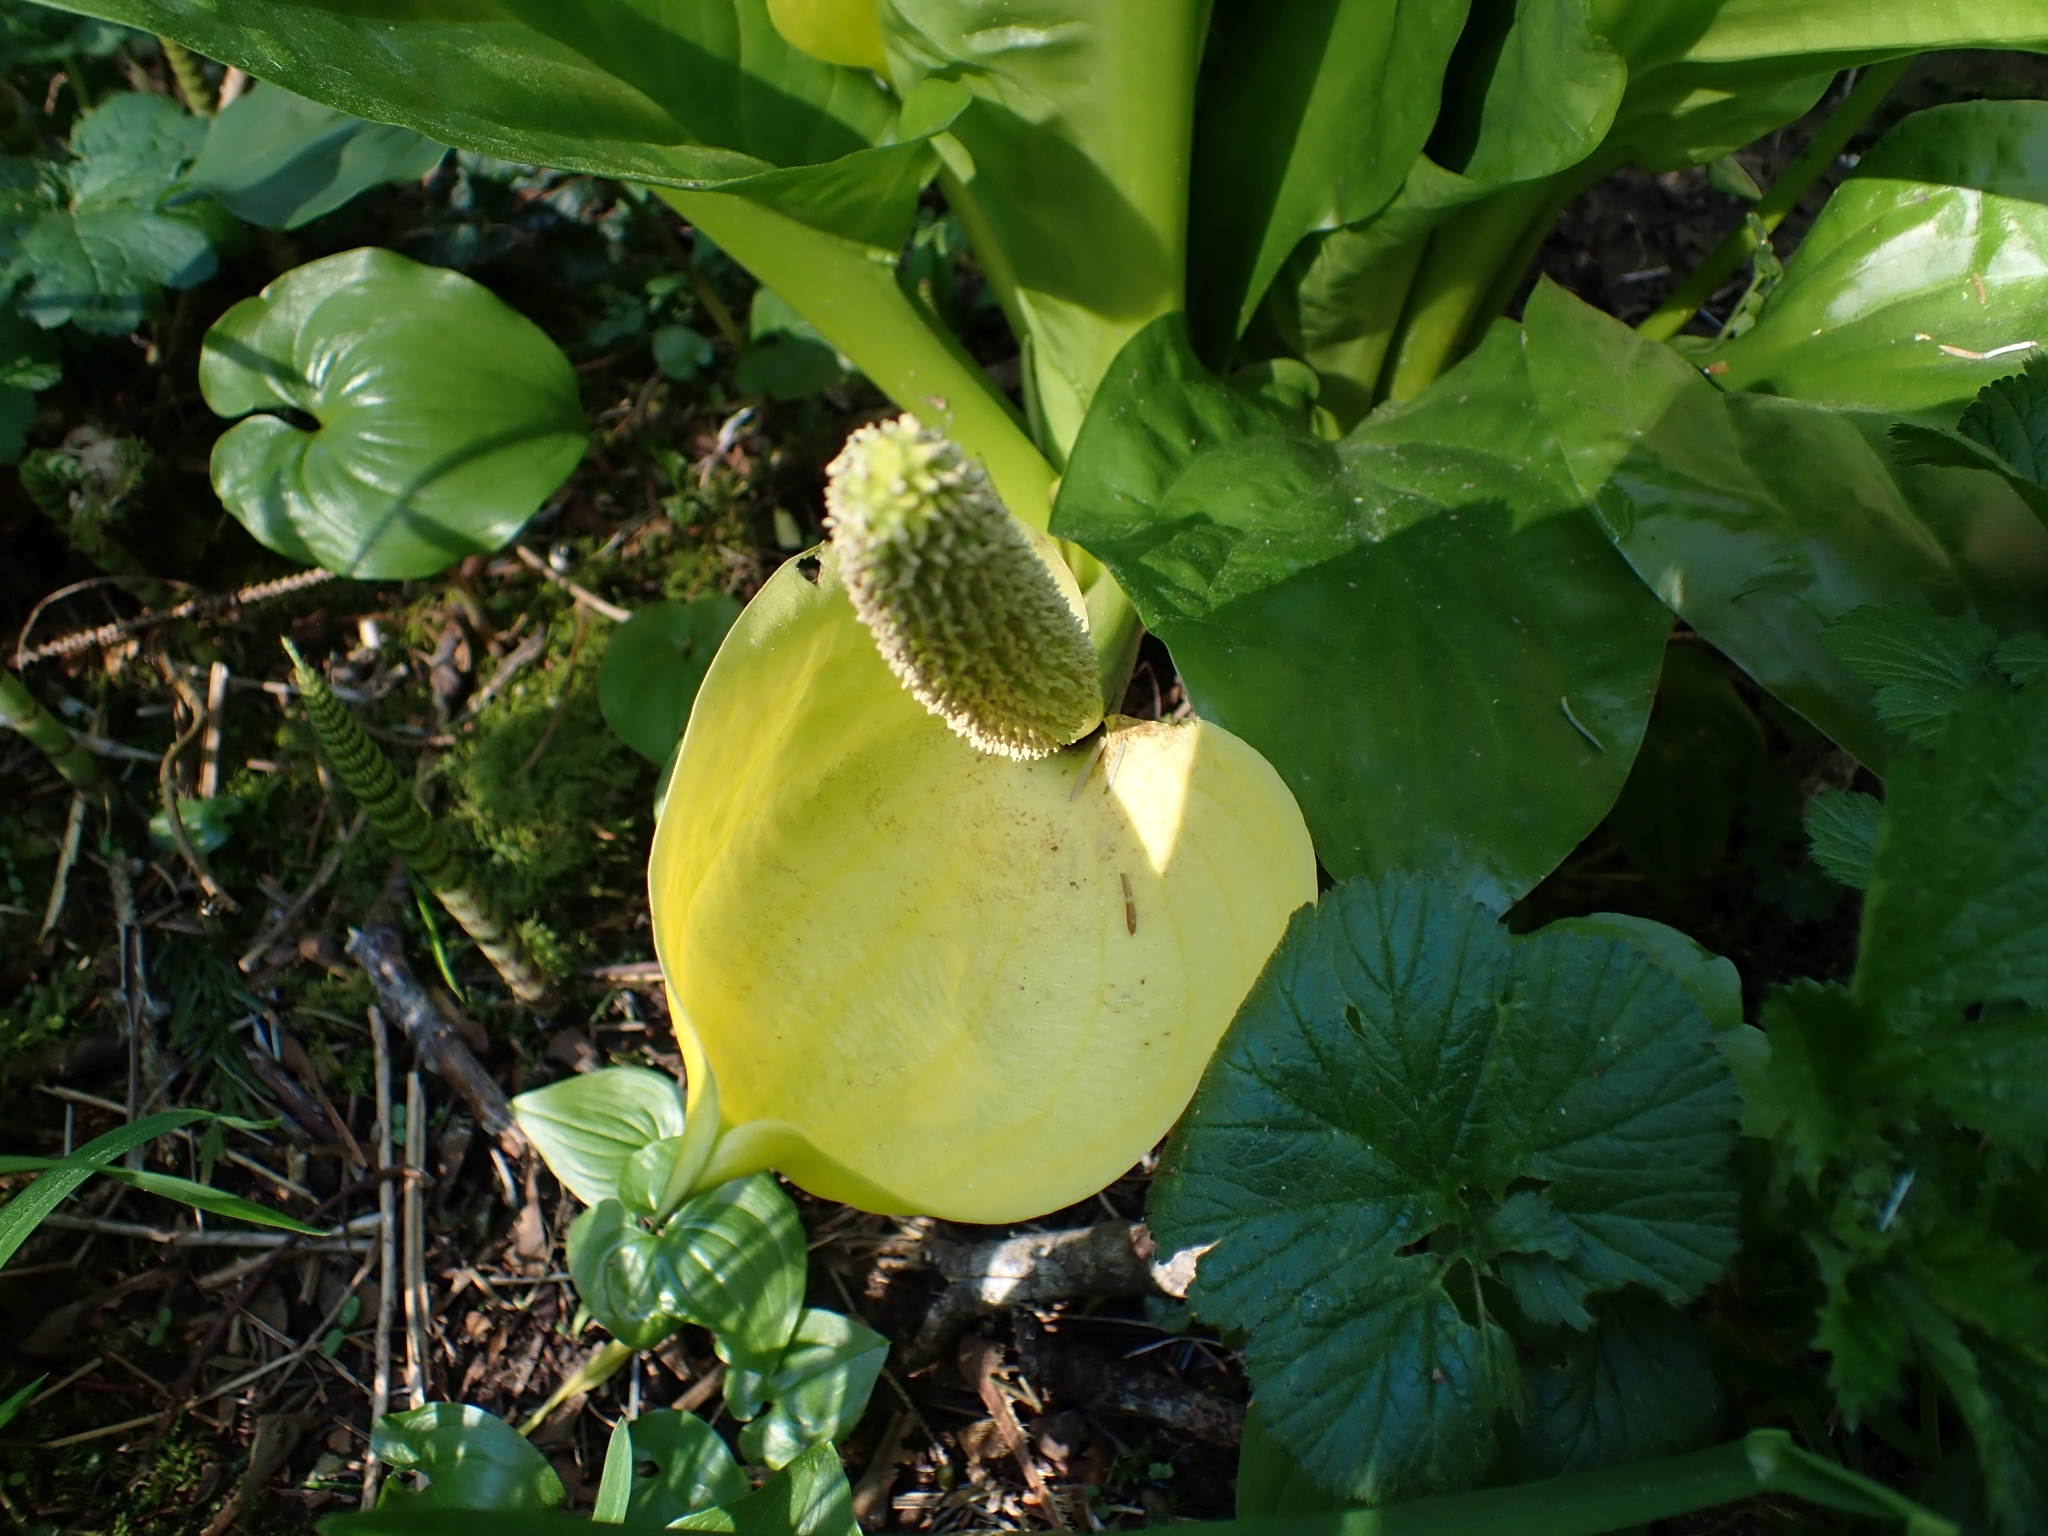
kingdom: Plantae
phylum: Tracheophyta
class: Liliopsida
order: Alismatales
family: Araceae
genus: Lysichiton
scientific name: Lysichiton americanus
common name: American skunk cabbage
